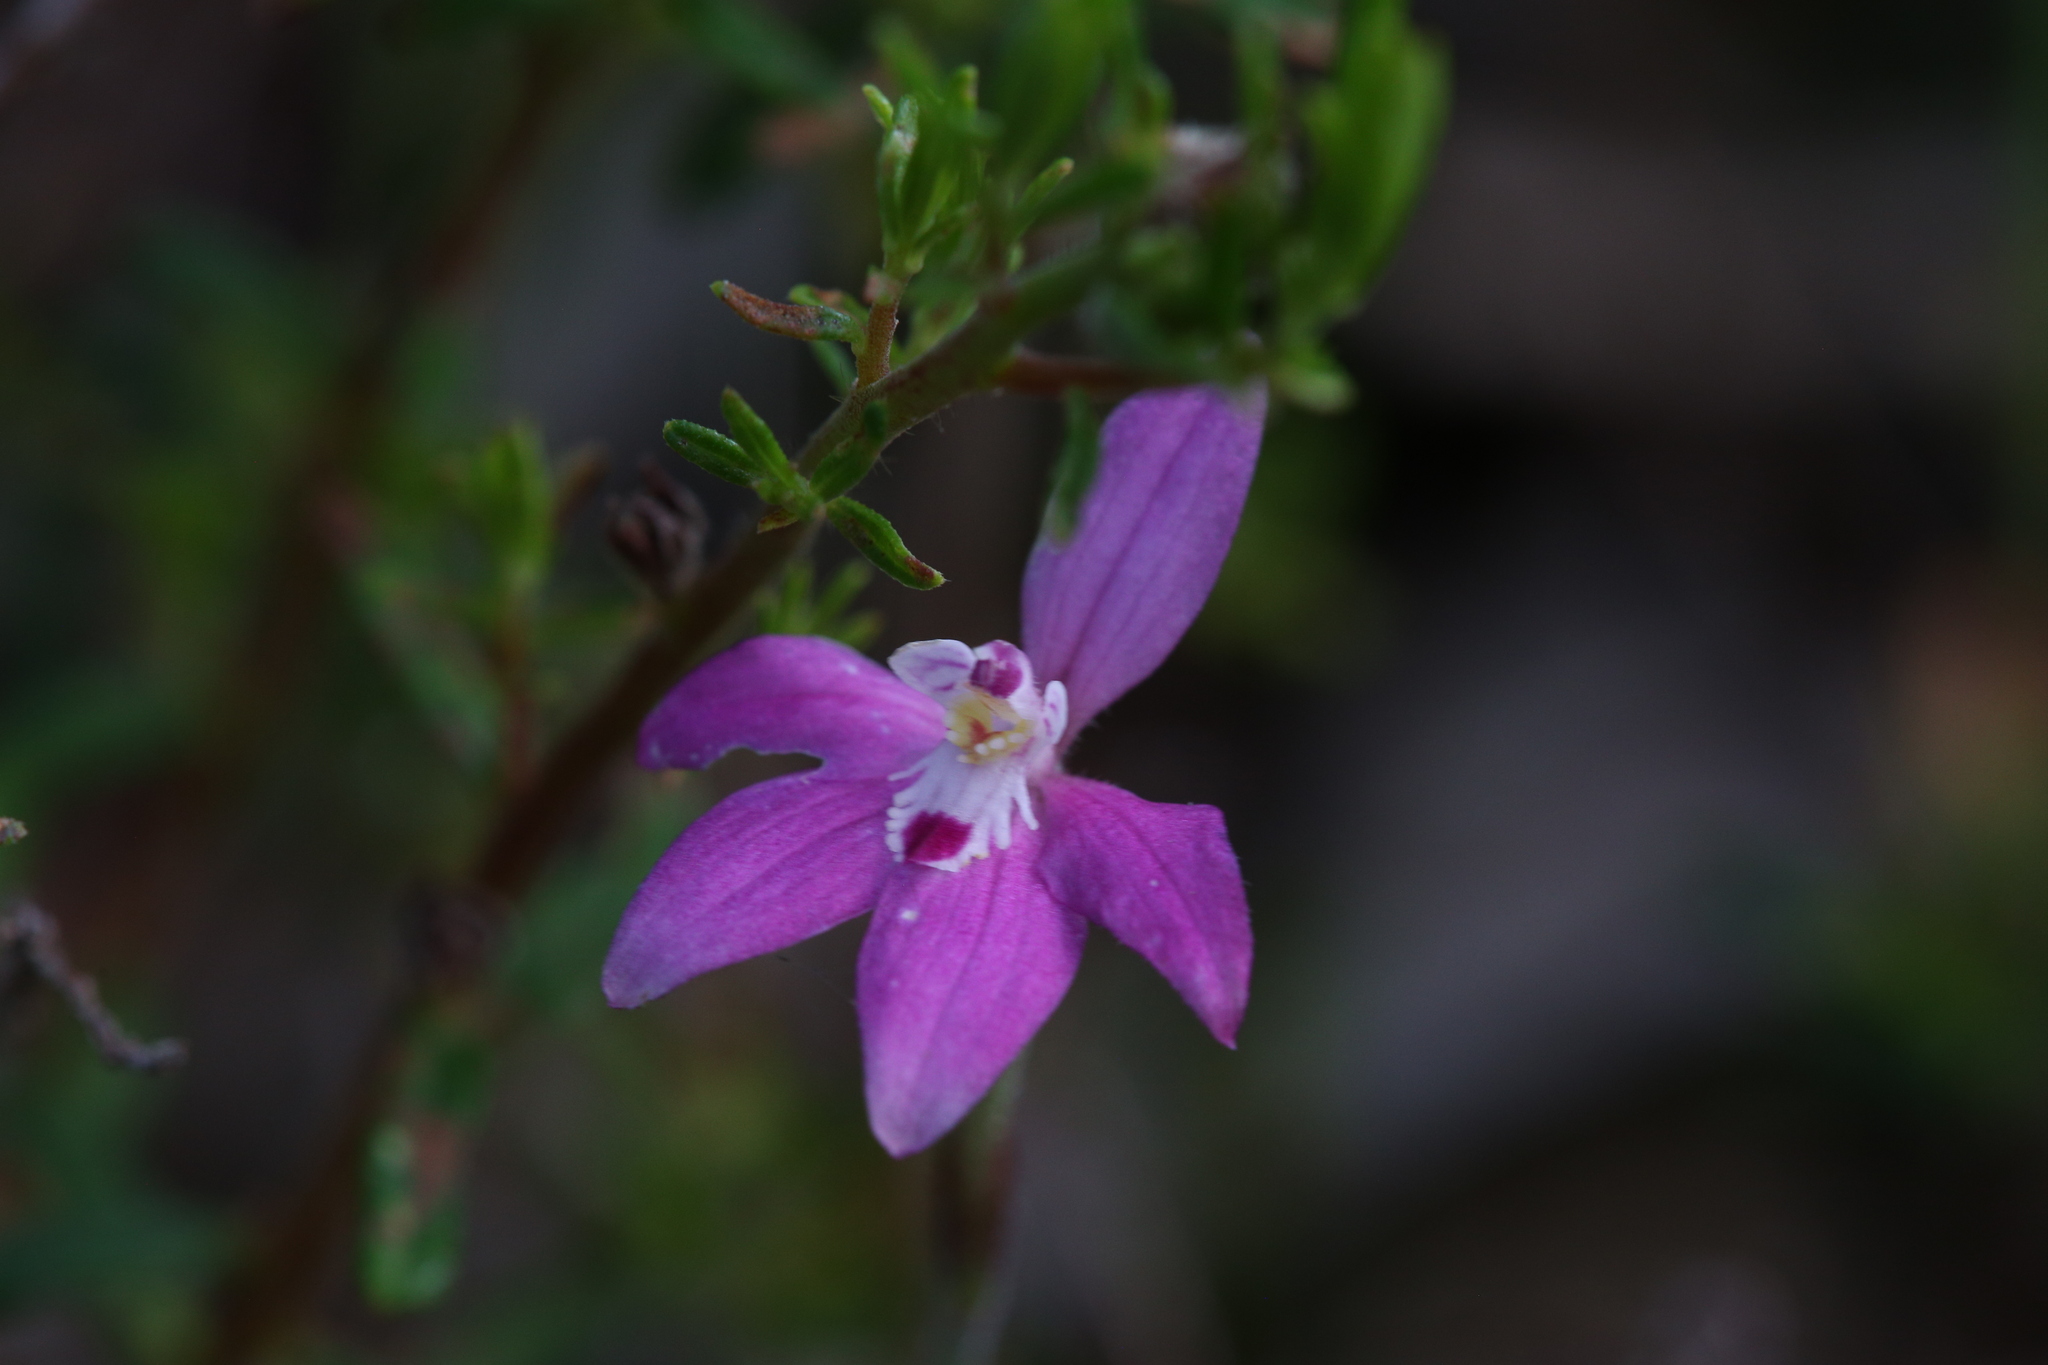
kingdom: Plantae
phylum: Tracheophyta
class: Liliopsida
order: Asparagales
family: Orchidaceae
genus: Caladenia
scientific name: Caladenia reptans
